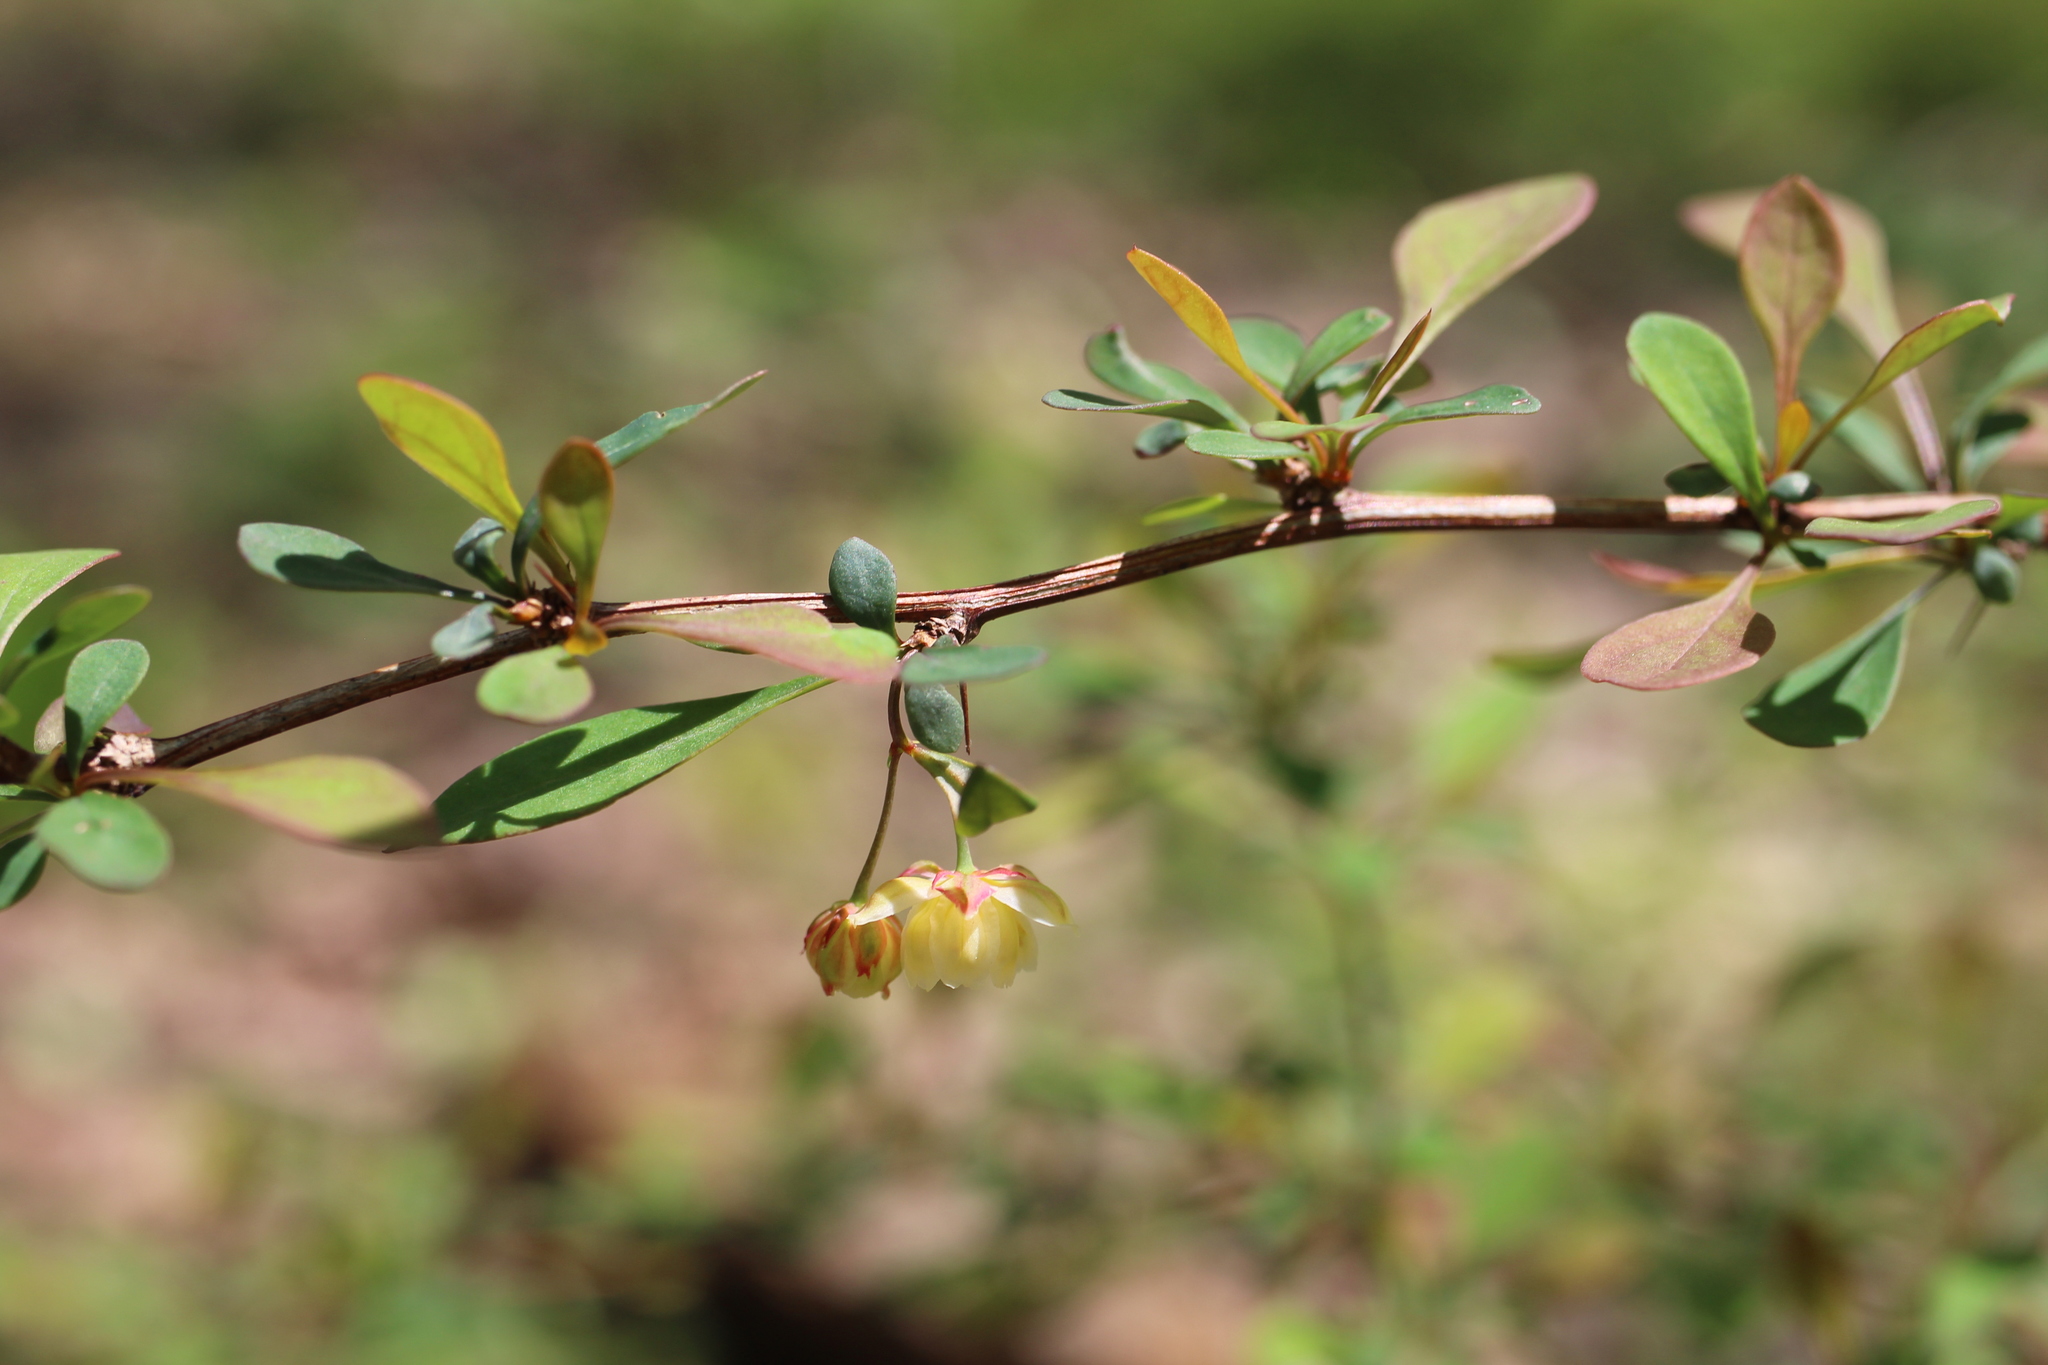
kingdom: Plantae
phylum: Tracheophyta
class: Magnoliopsida
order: Ranunculales
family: Berberidaceae
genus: Berberis
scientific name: Berberis thunbergii
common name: Japanese barberry
